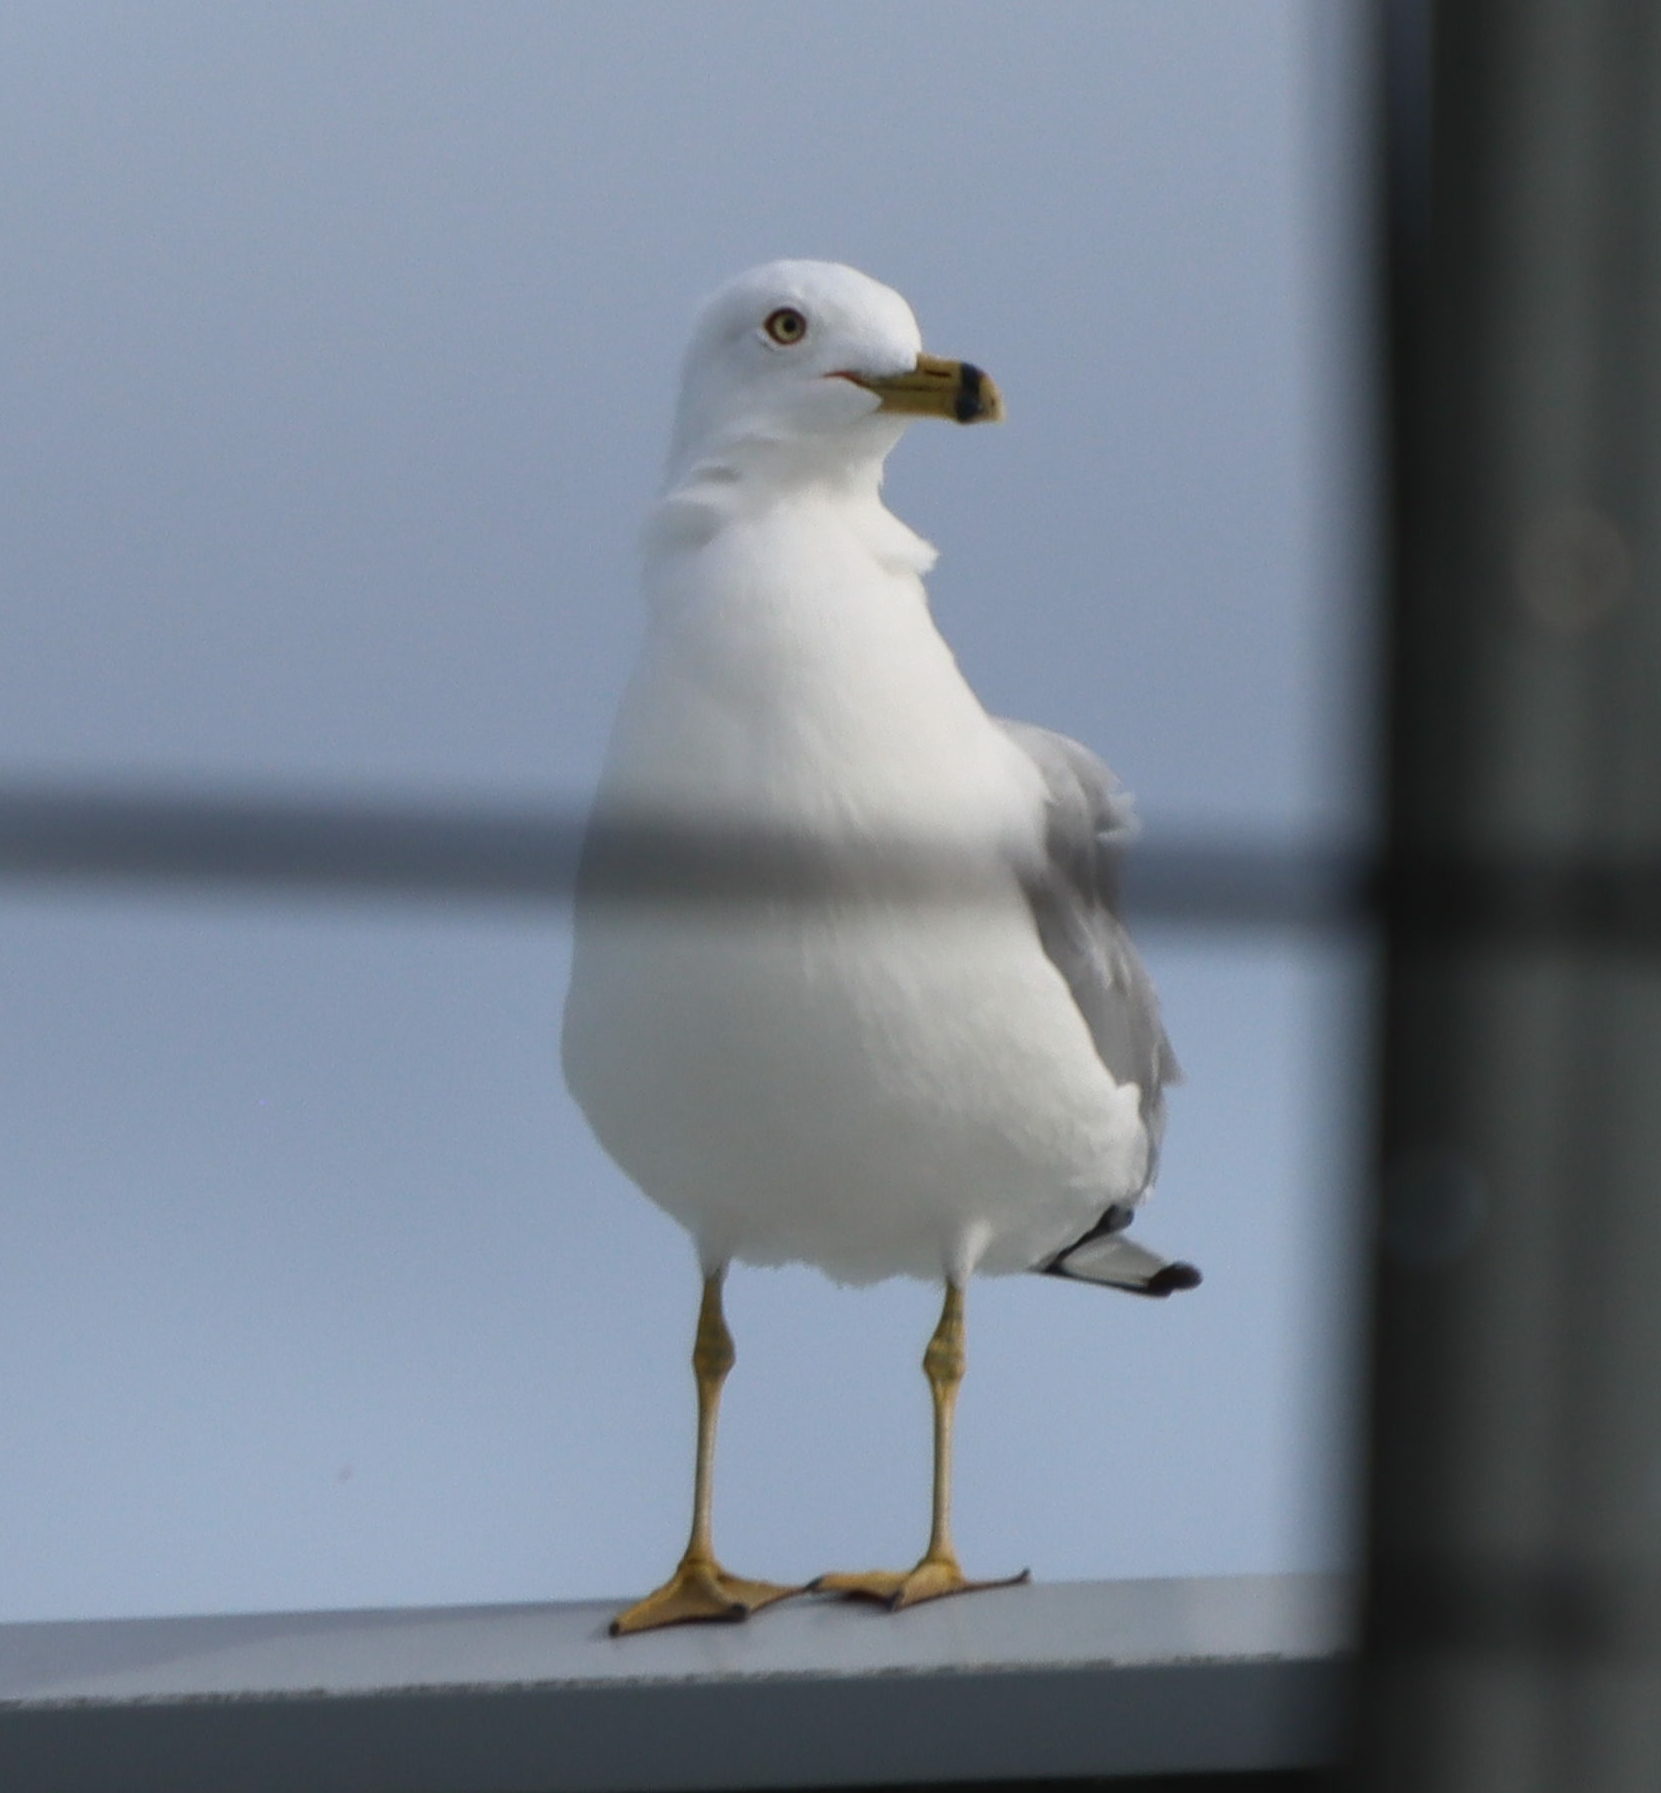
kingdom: Animalia
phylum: Chordata
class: Aves
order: Charadriiformes
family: Laridae
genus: Larus
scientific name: Larus delawarensis
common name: Ring-billed gull
